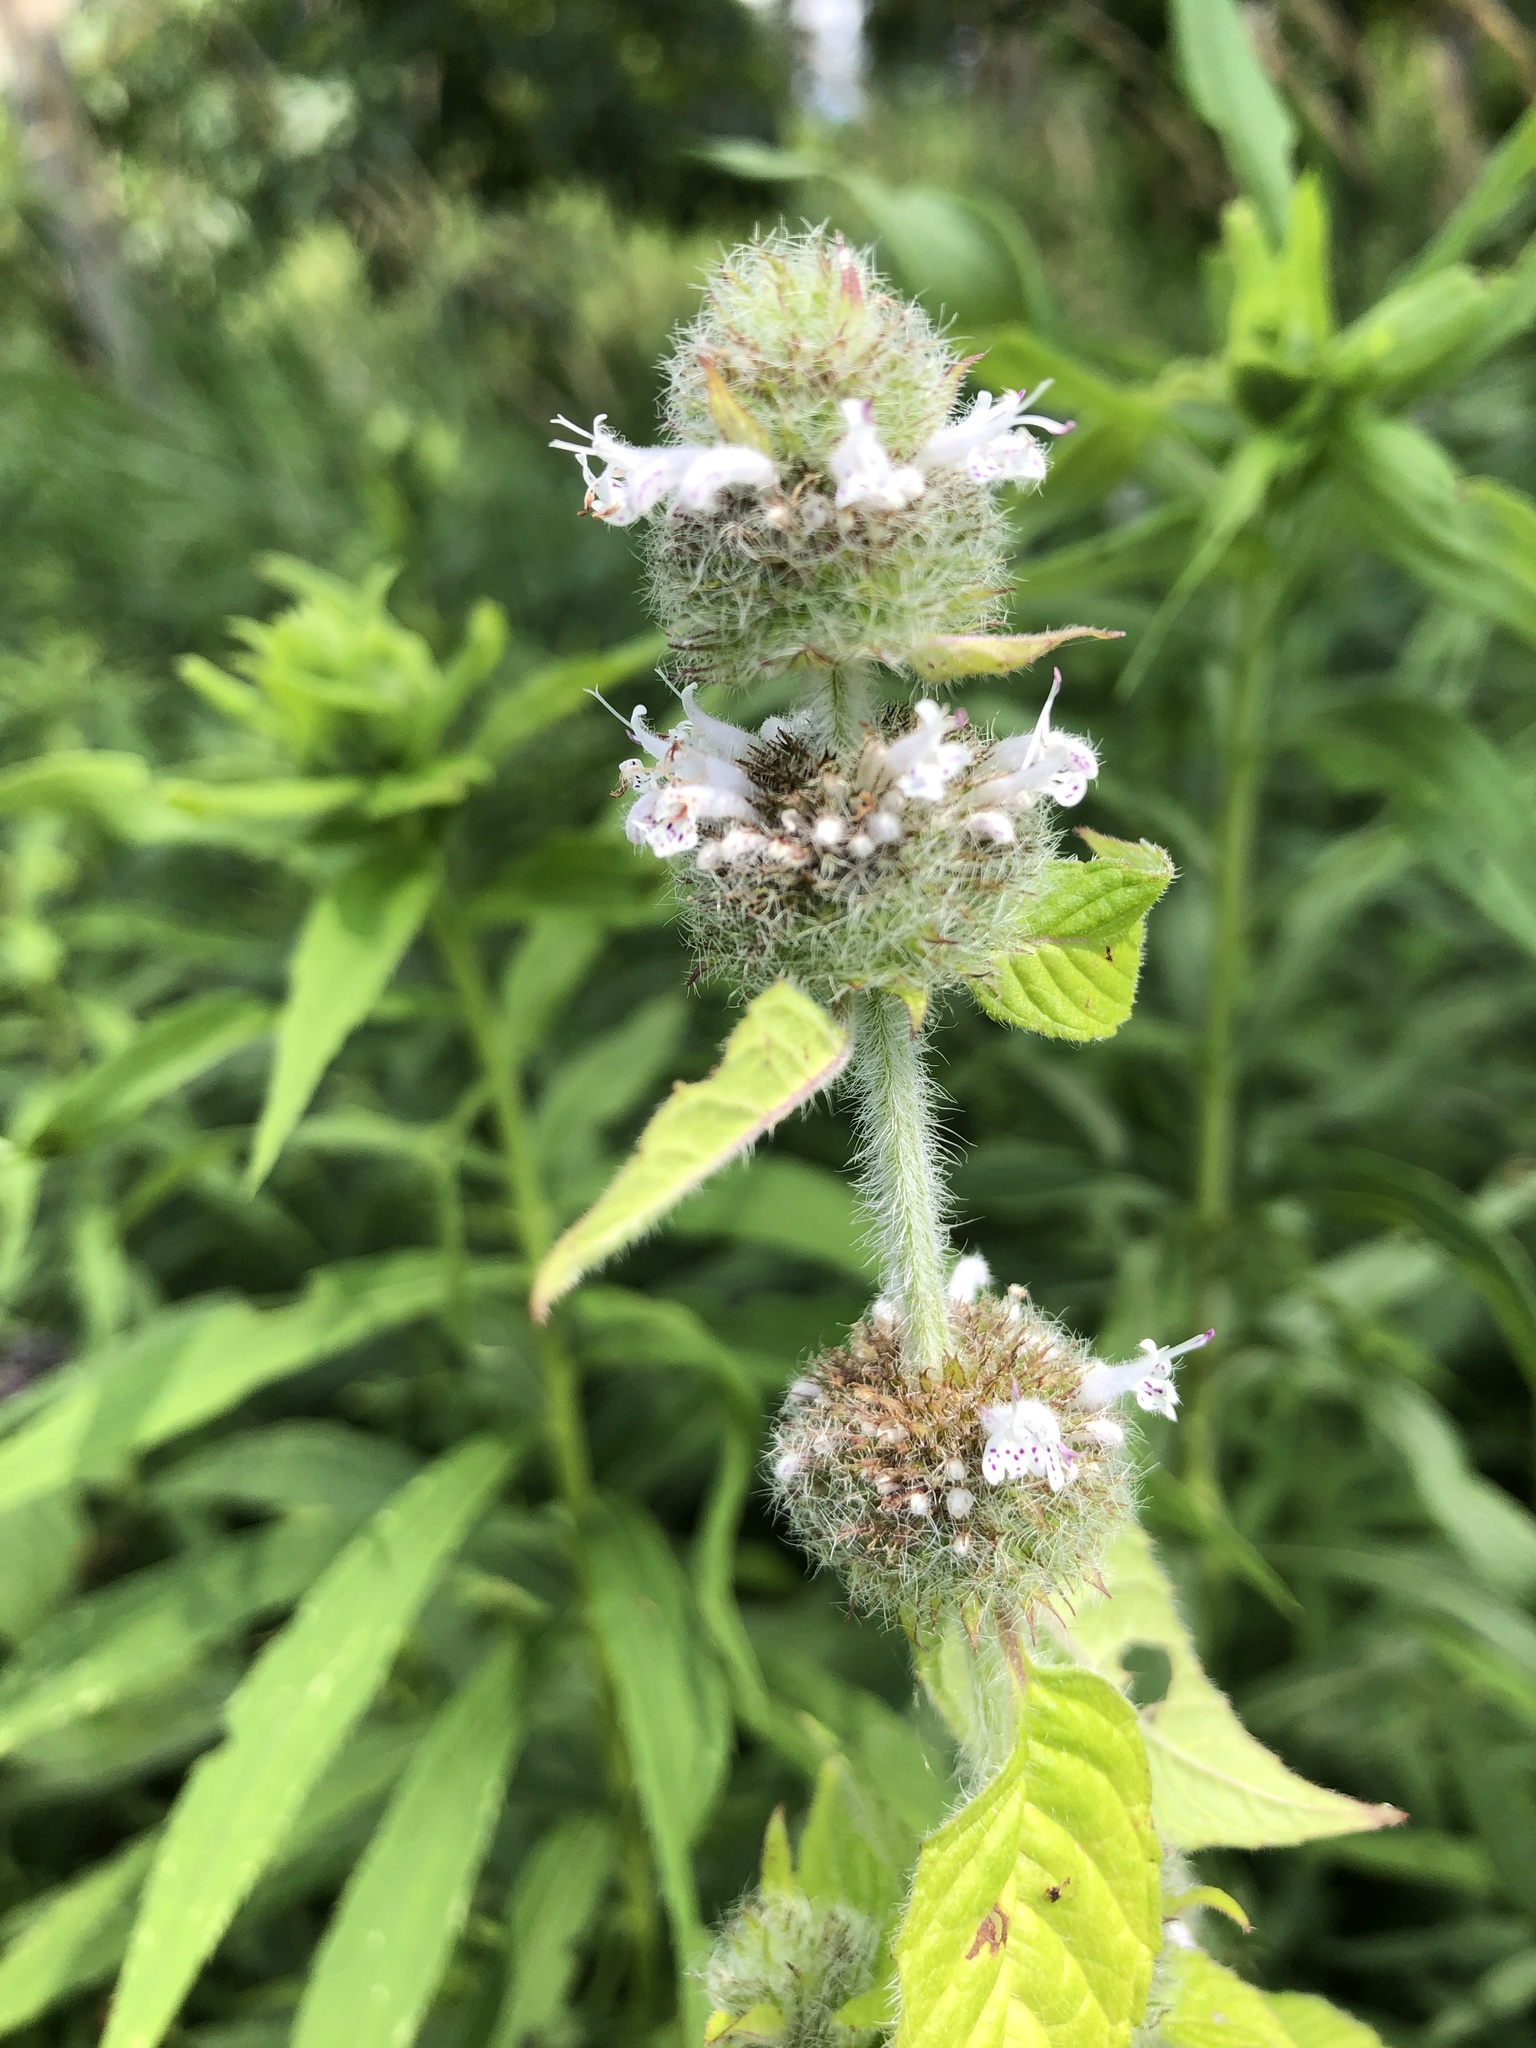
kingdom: Plantae
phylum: Tracheophyta
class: Magnoliopsida
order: Lamiales
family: Lamiaceae
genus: Blephilia
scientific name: Blephilia hirsuta
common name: Hairy blephilia
